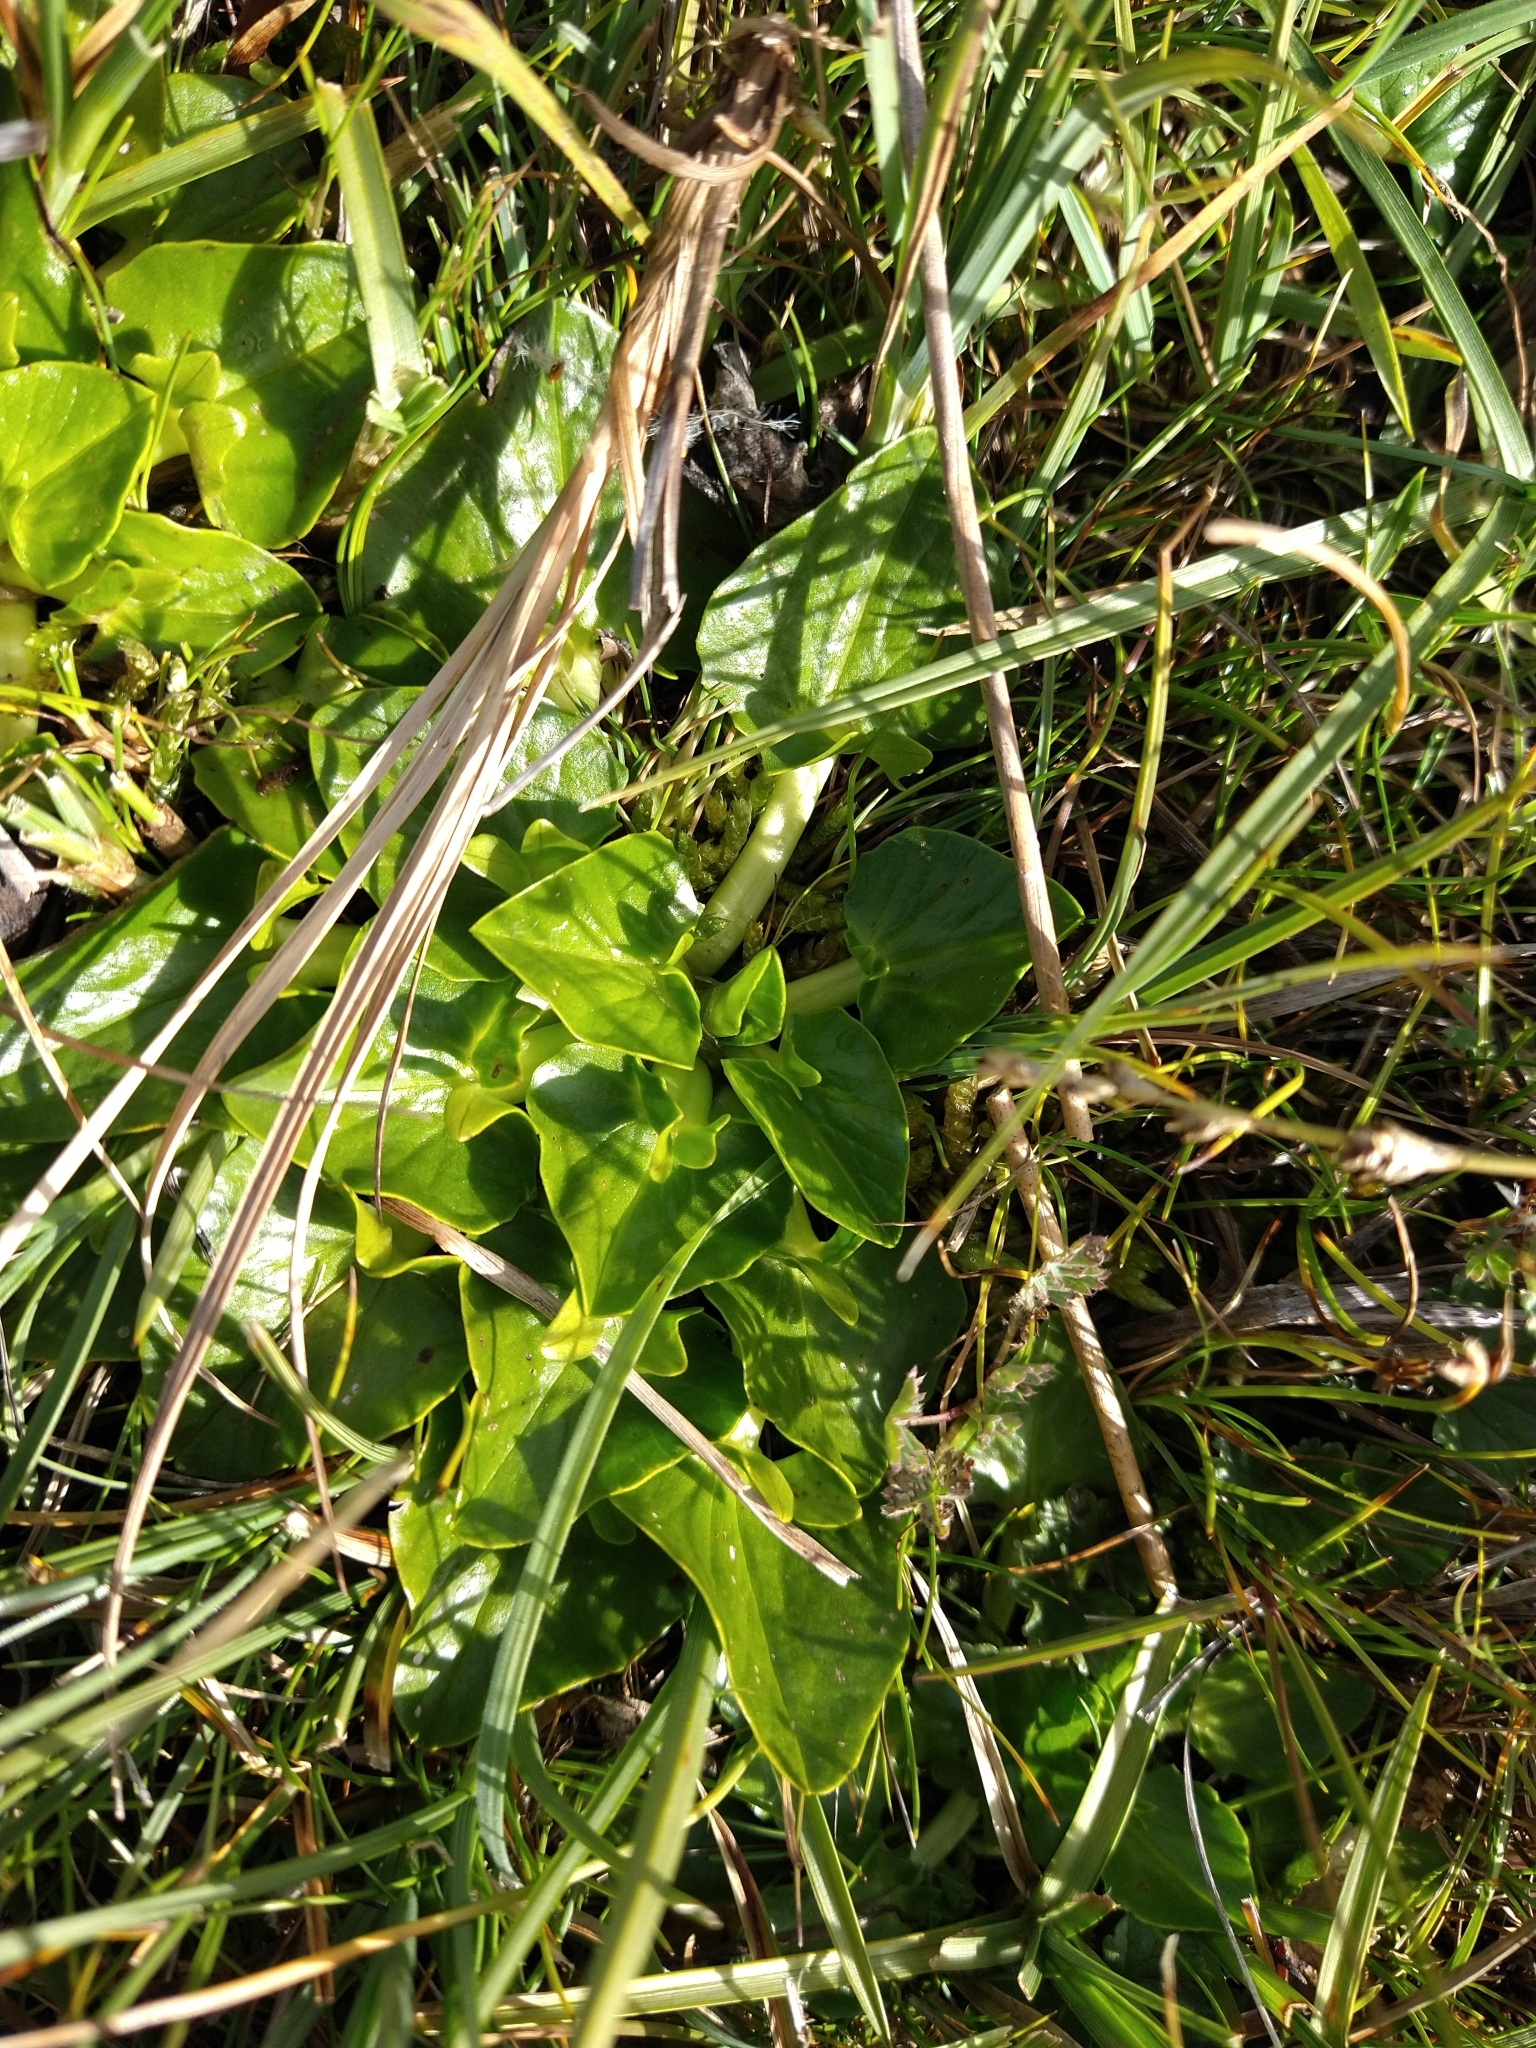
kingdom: Plantae
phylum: Tracheophyta
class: Magnoliopsida
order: Ranunculales
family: Ranunculaceae
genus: Caltha
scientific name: Caltha sagittata
